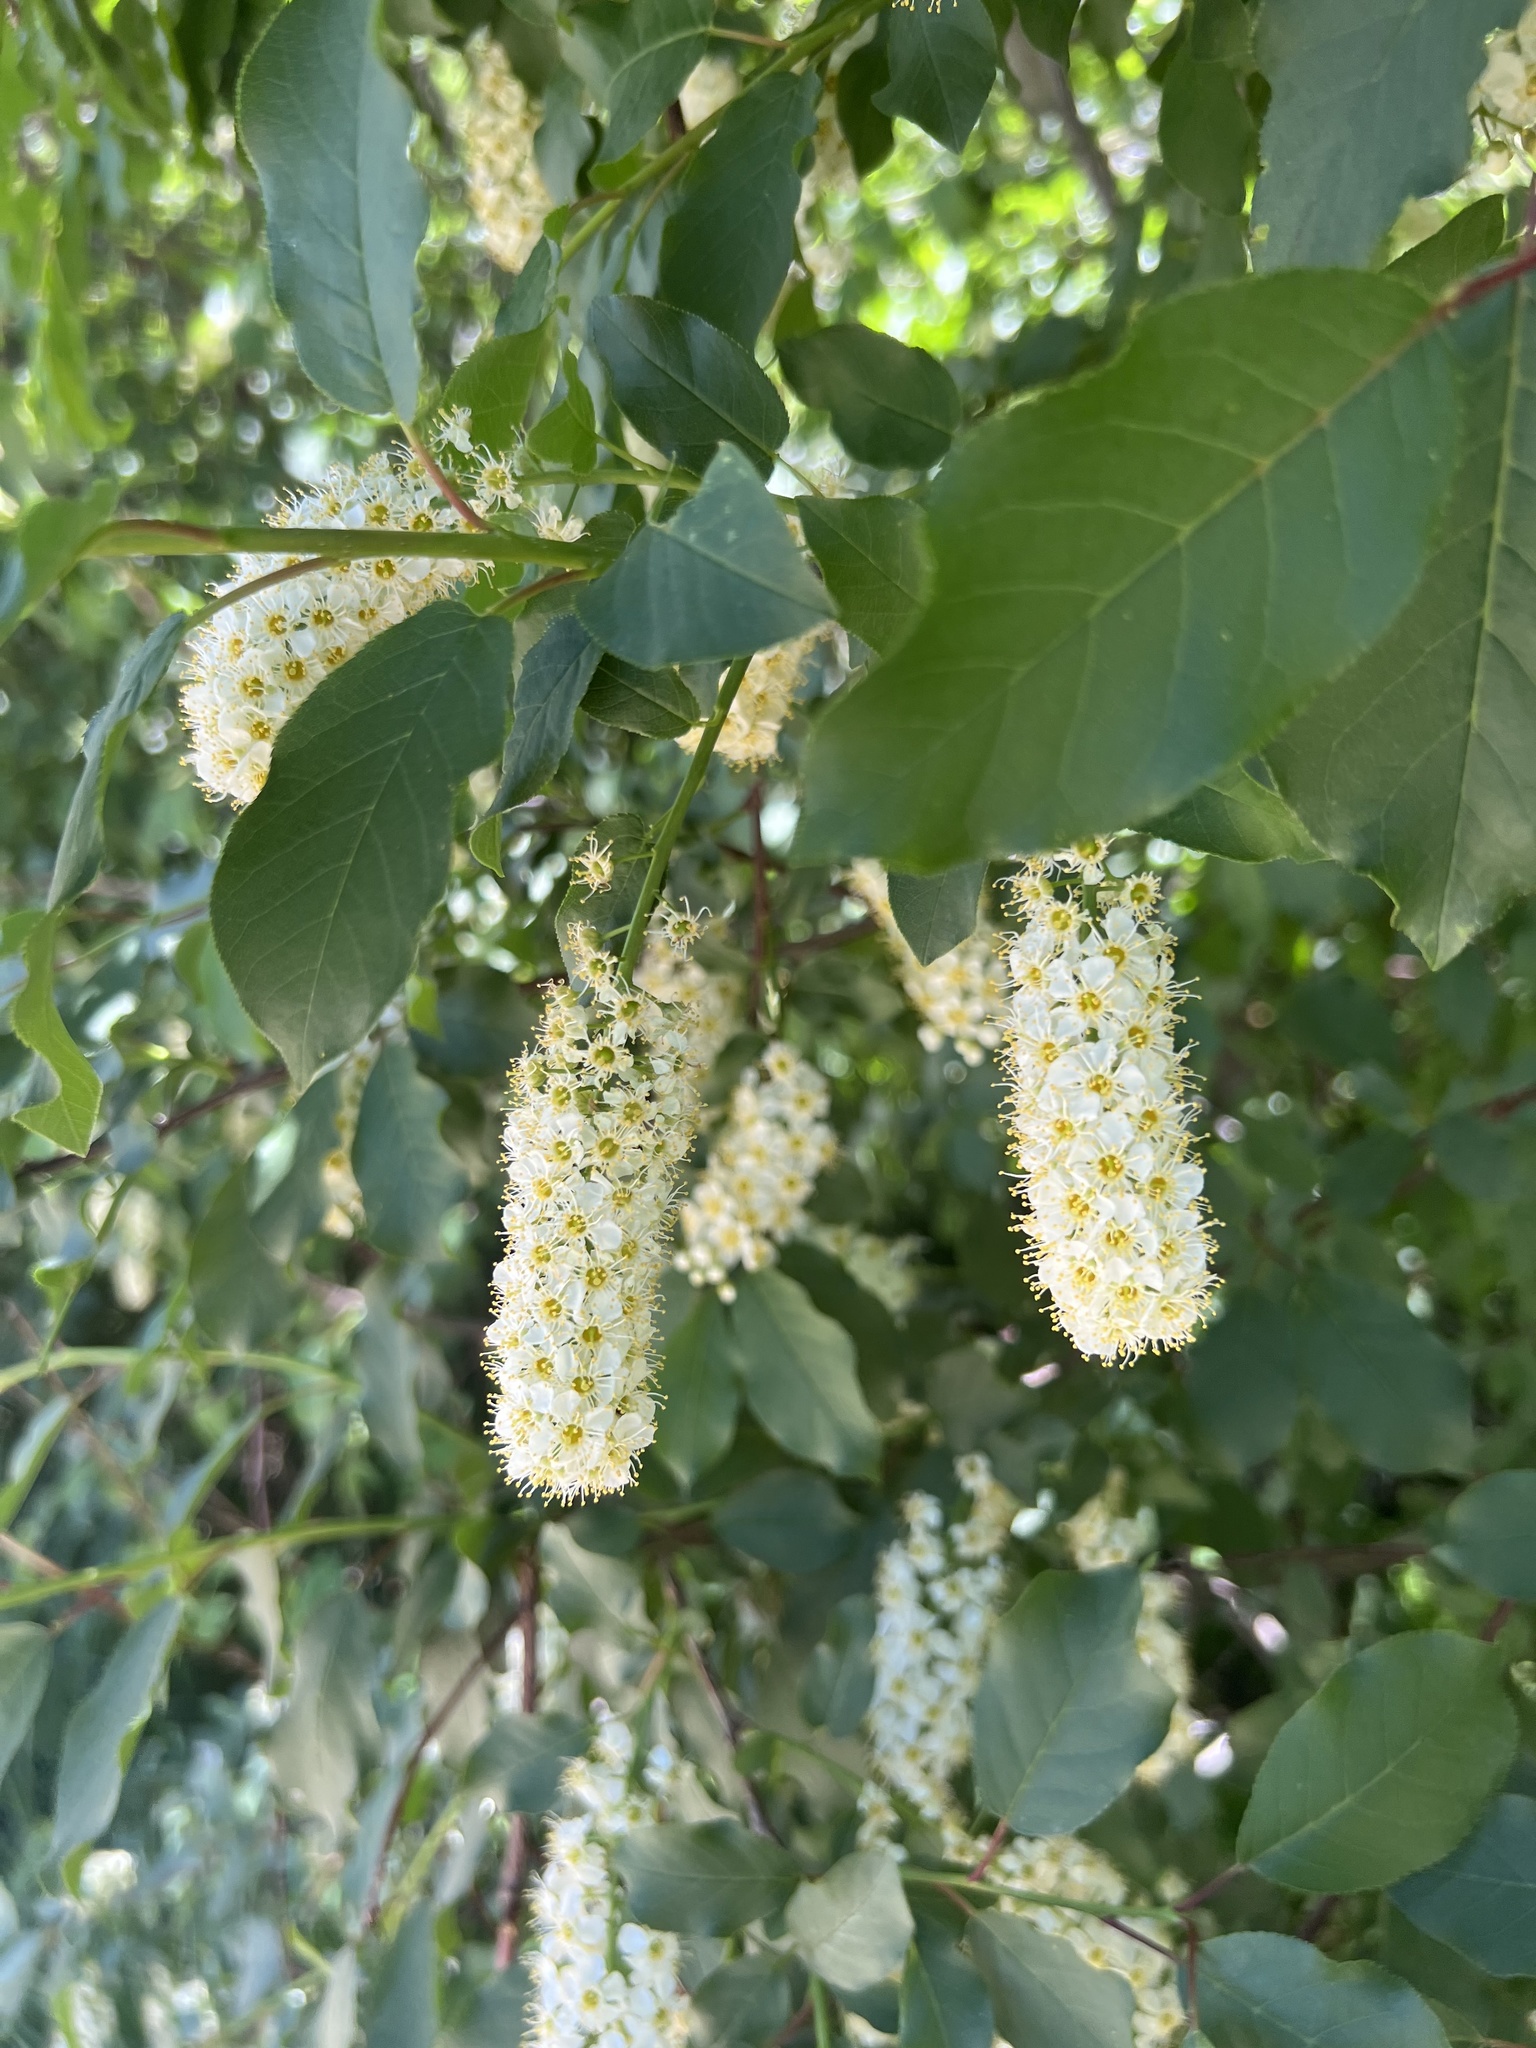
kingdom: Plantae
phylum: Tracheophyta
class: Magnoliopsida
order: Rosales
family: Rosaceae
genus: Prunus
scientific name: Prunus virginiana
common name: Chokecherry
